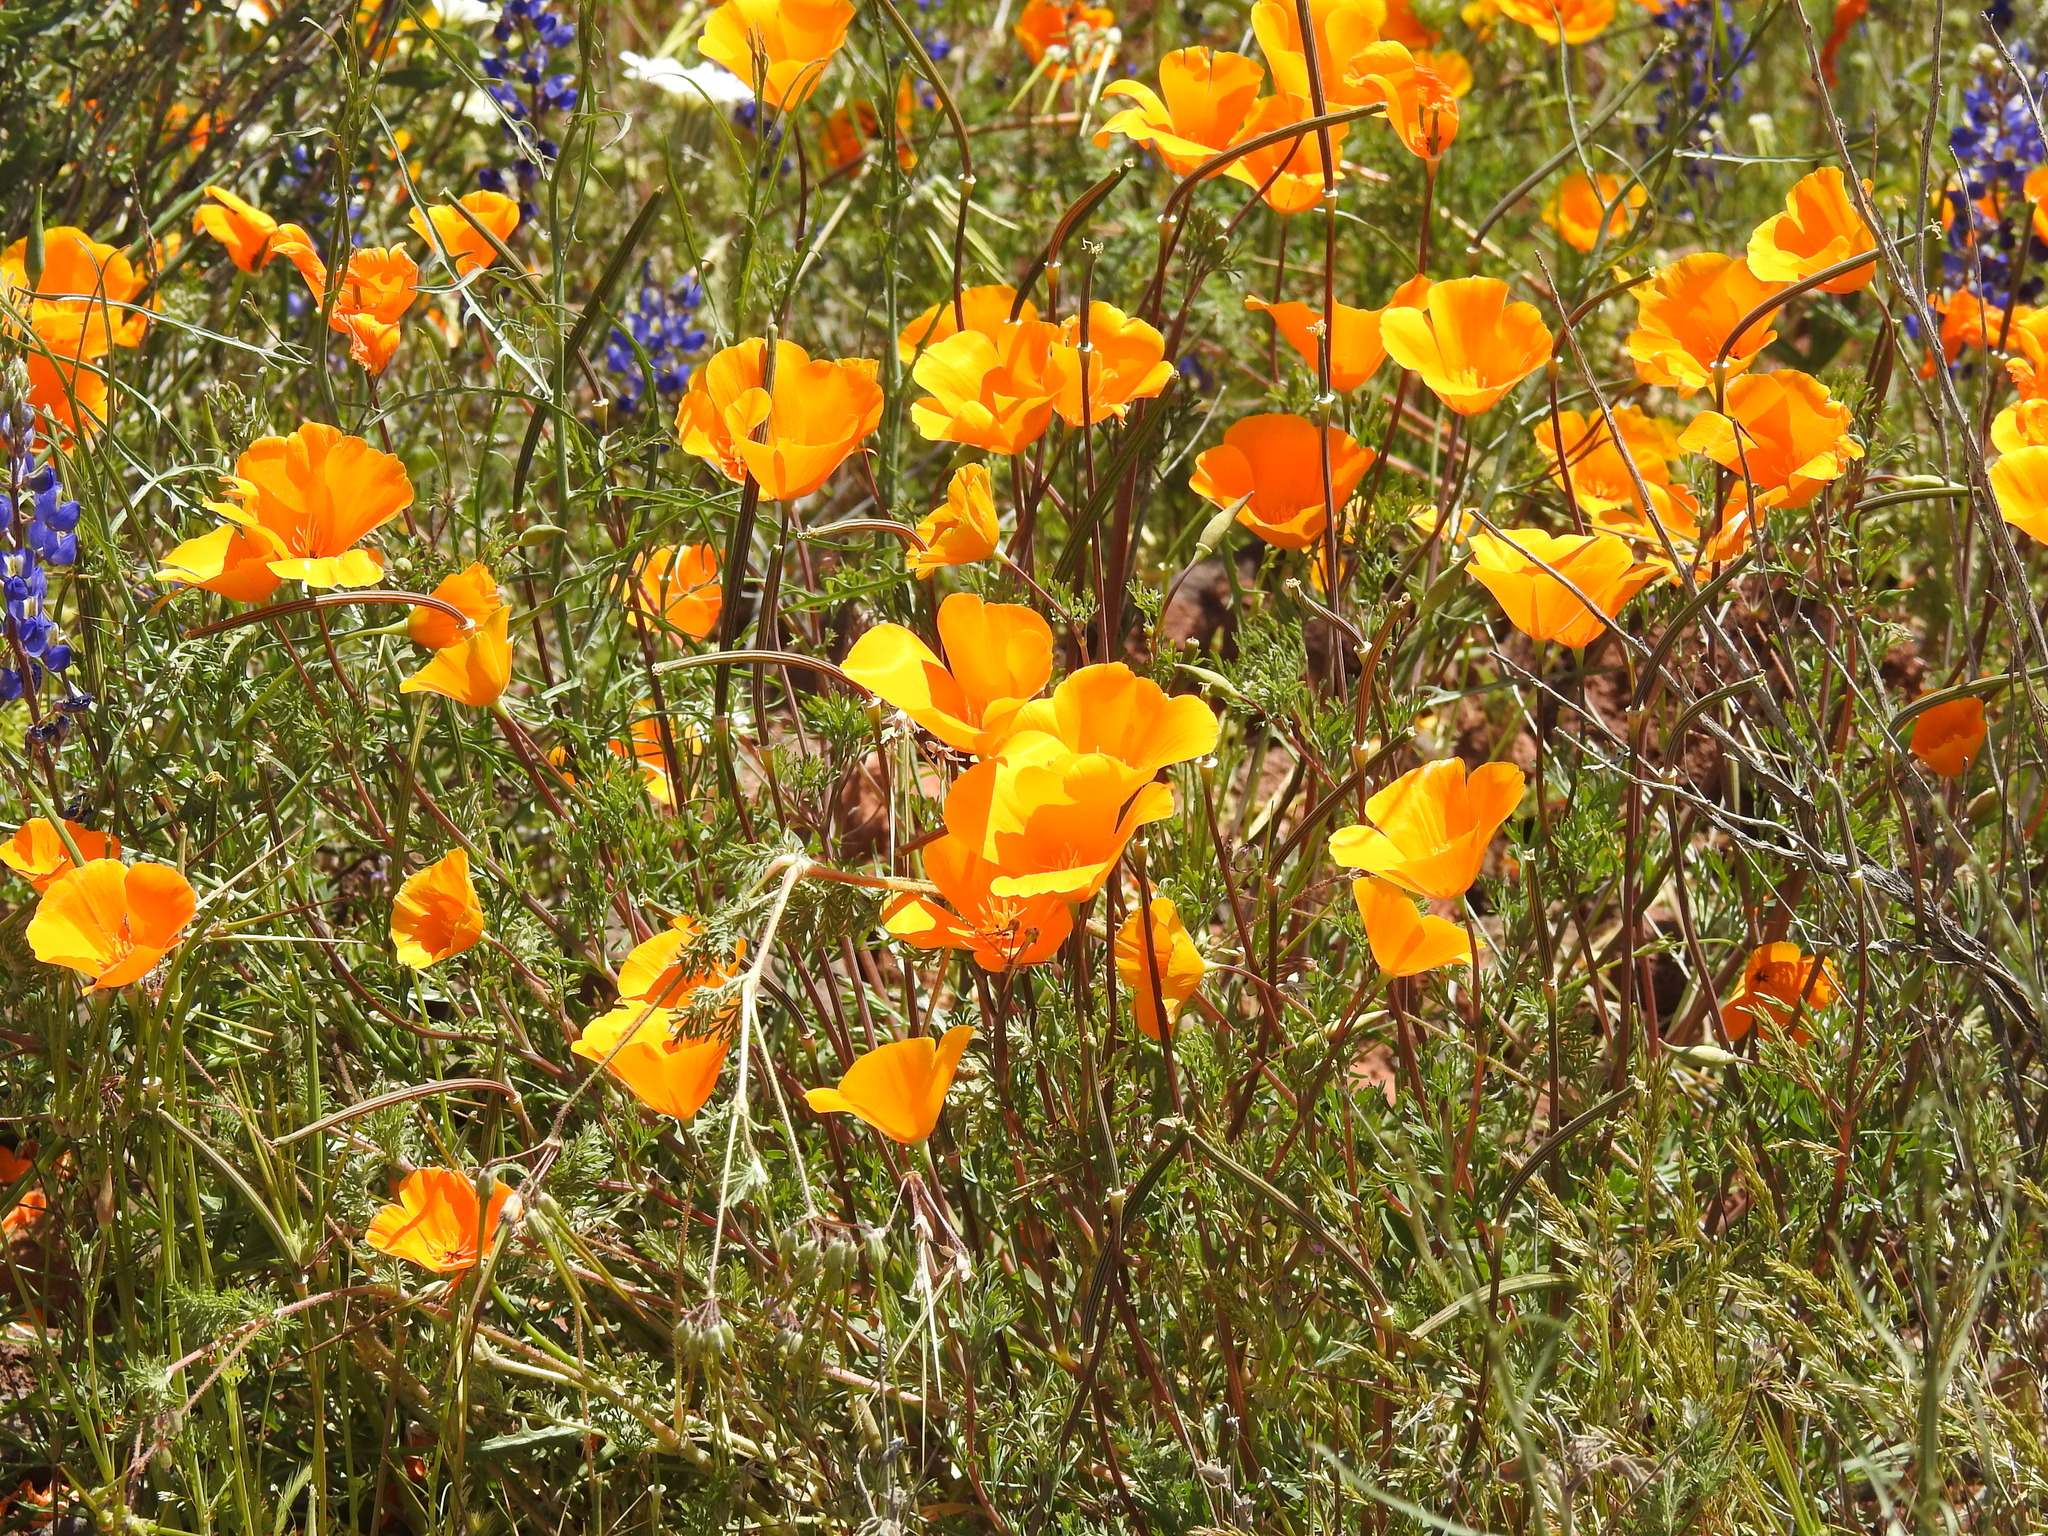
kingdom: Plantae
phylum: Tracheophyta
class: Magnoliopsida
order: Ranunculales
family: Papaveraceae
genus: Eschscholzia
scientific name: Eschscholzia californica
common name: California poppy
